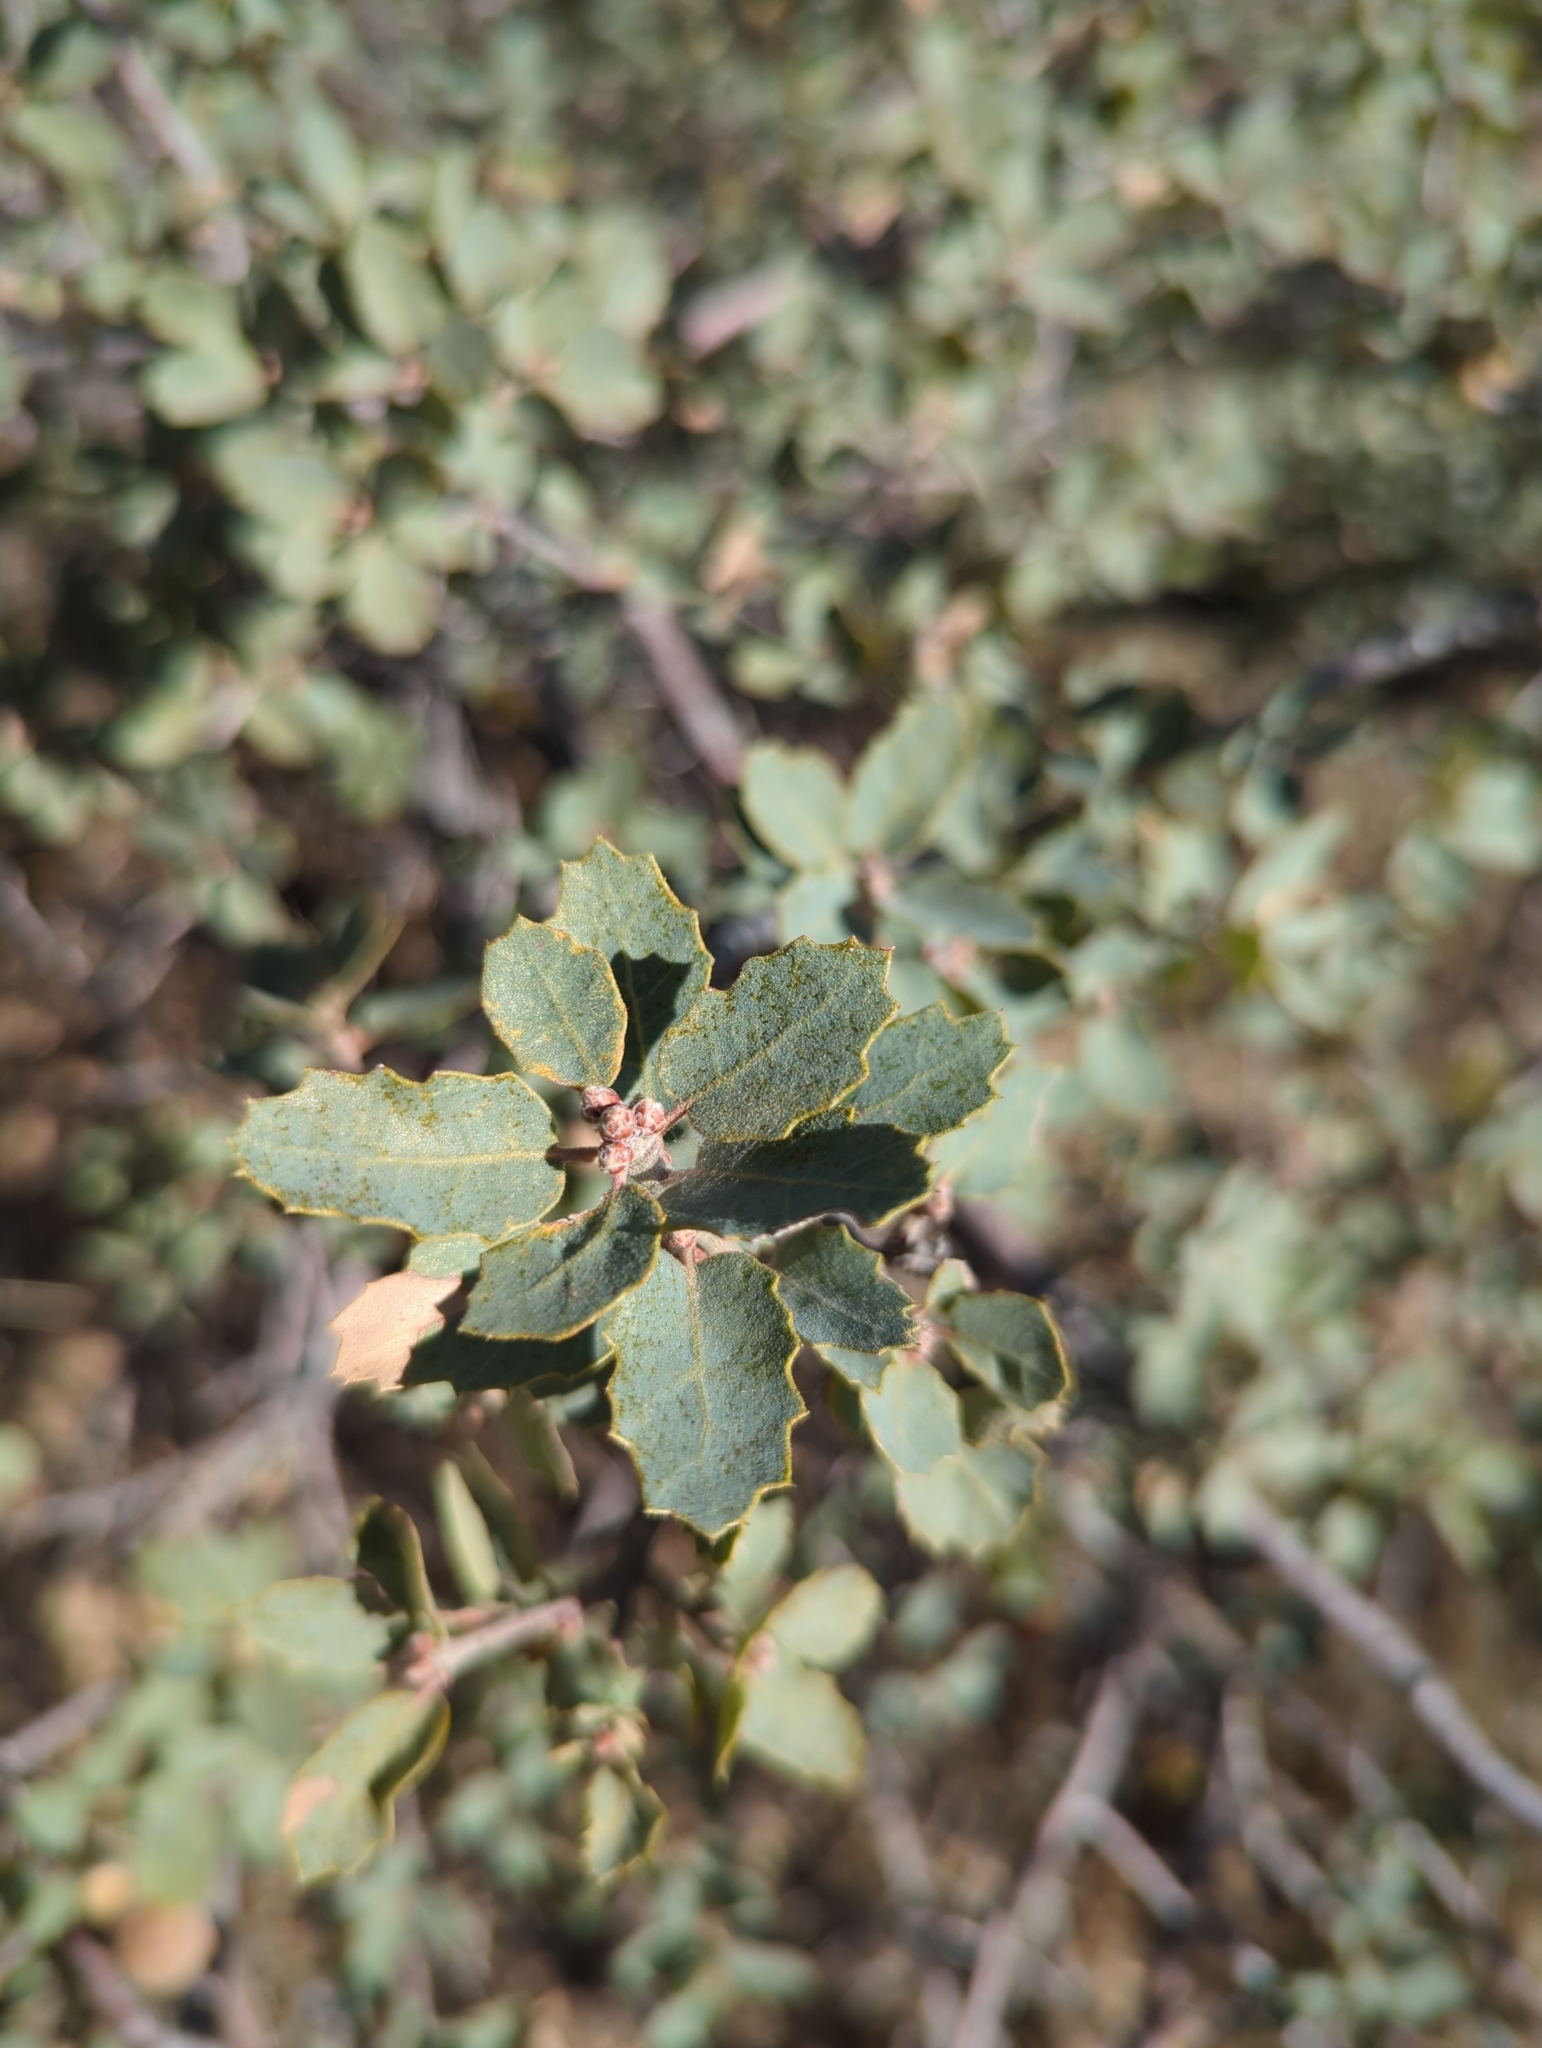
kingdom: Plantae
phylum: Tracheophyta
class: Magnoliopsida
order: Fagales
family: Fagaceae
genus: Quercus
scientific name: Quercus turbinella
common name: Sonoran scrub oak
